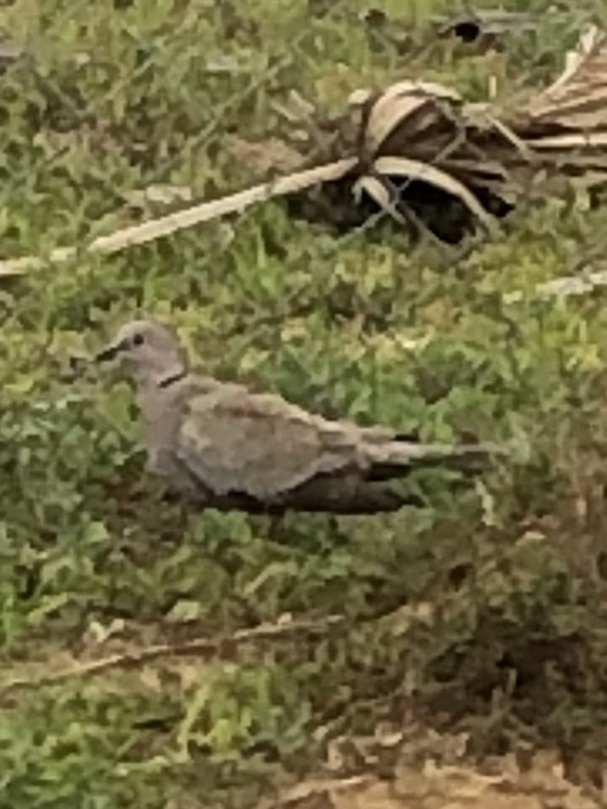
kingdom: Animalia
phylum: Chordata
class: Aves
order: Columbiformes
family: Columbidae
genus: Streptopelia
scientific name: Streptopelia decaocto
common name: Eurasian collared dove
